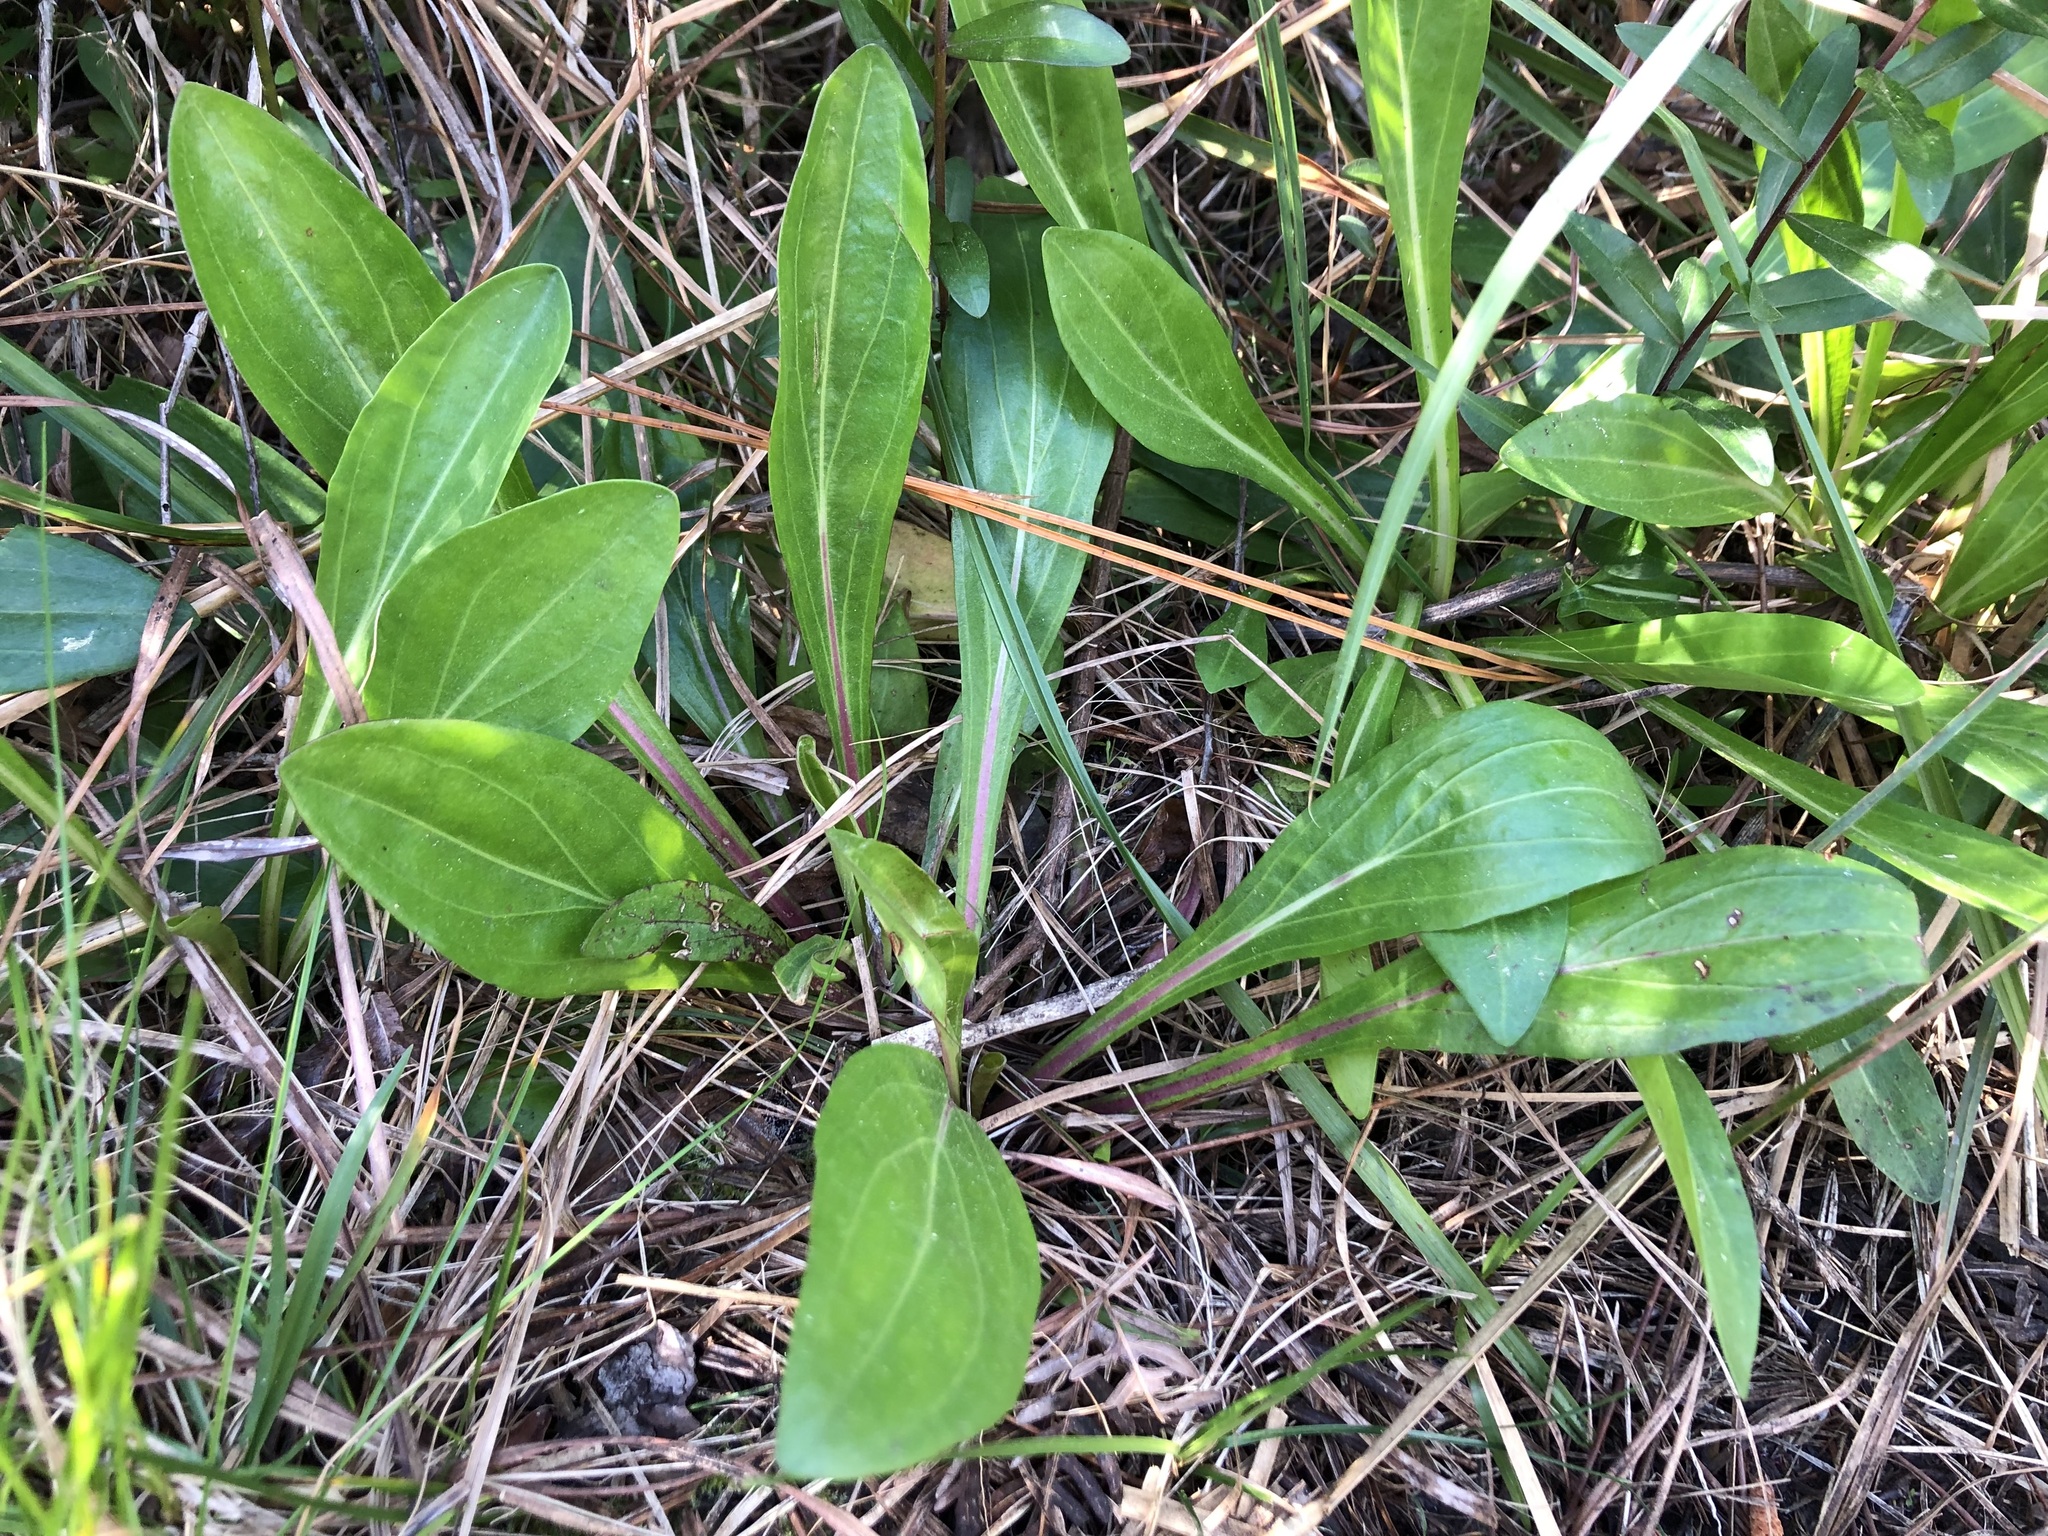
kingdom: Plantae
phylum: Tracheophyta
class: Magnoliopsida
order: Asterales
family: Asteraceae
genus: Carphephorus
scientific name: Carphephorus odoratissimus
